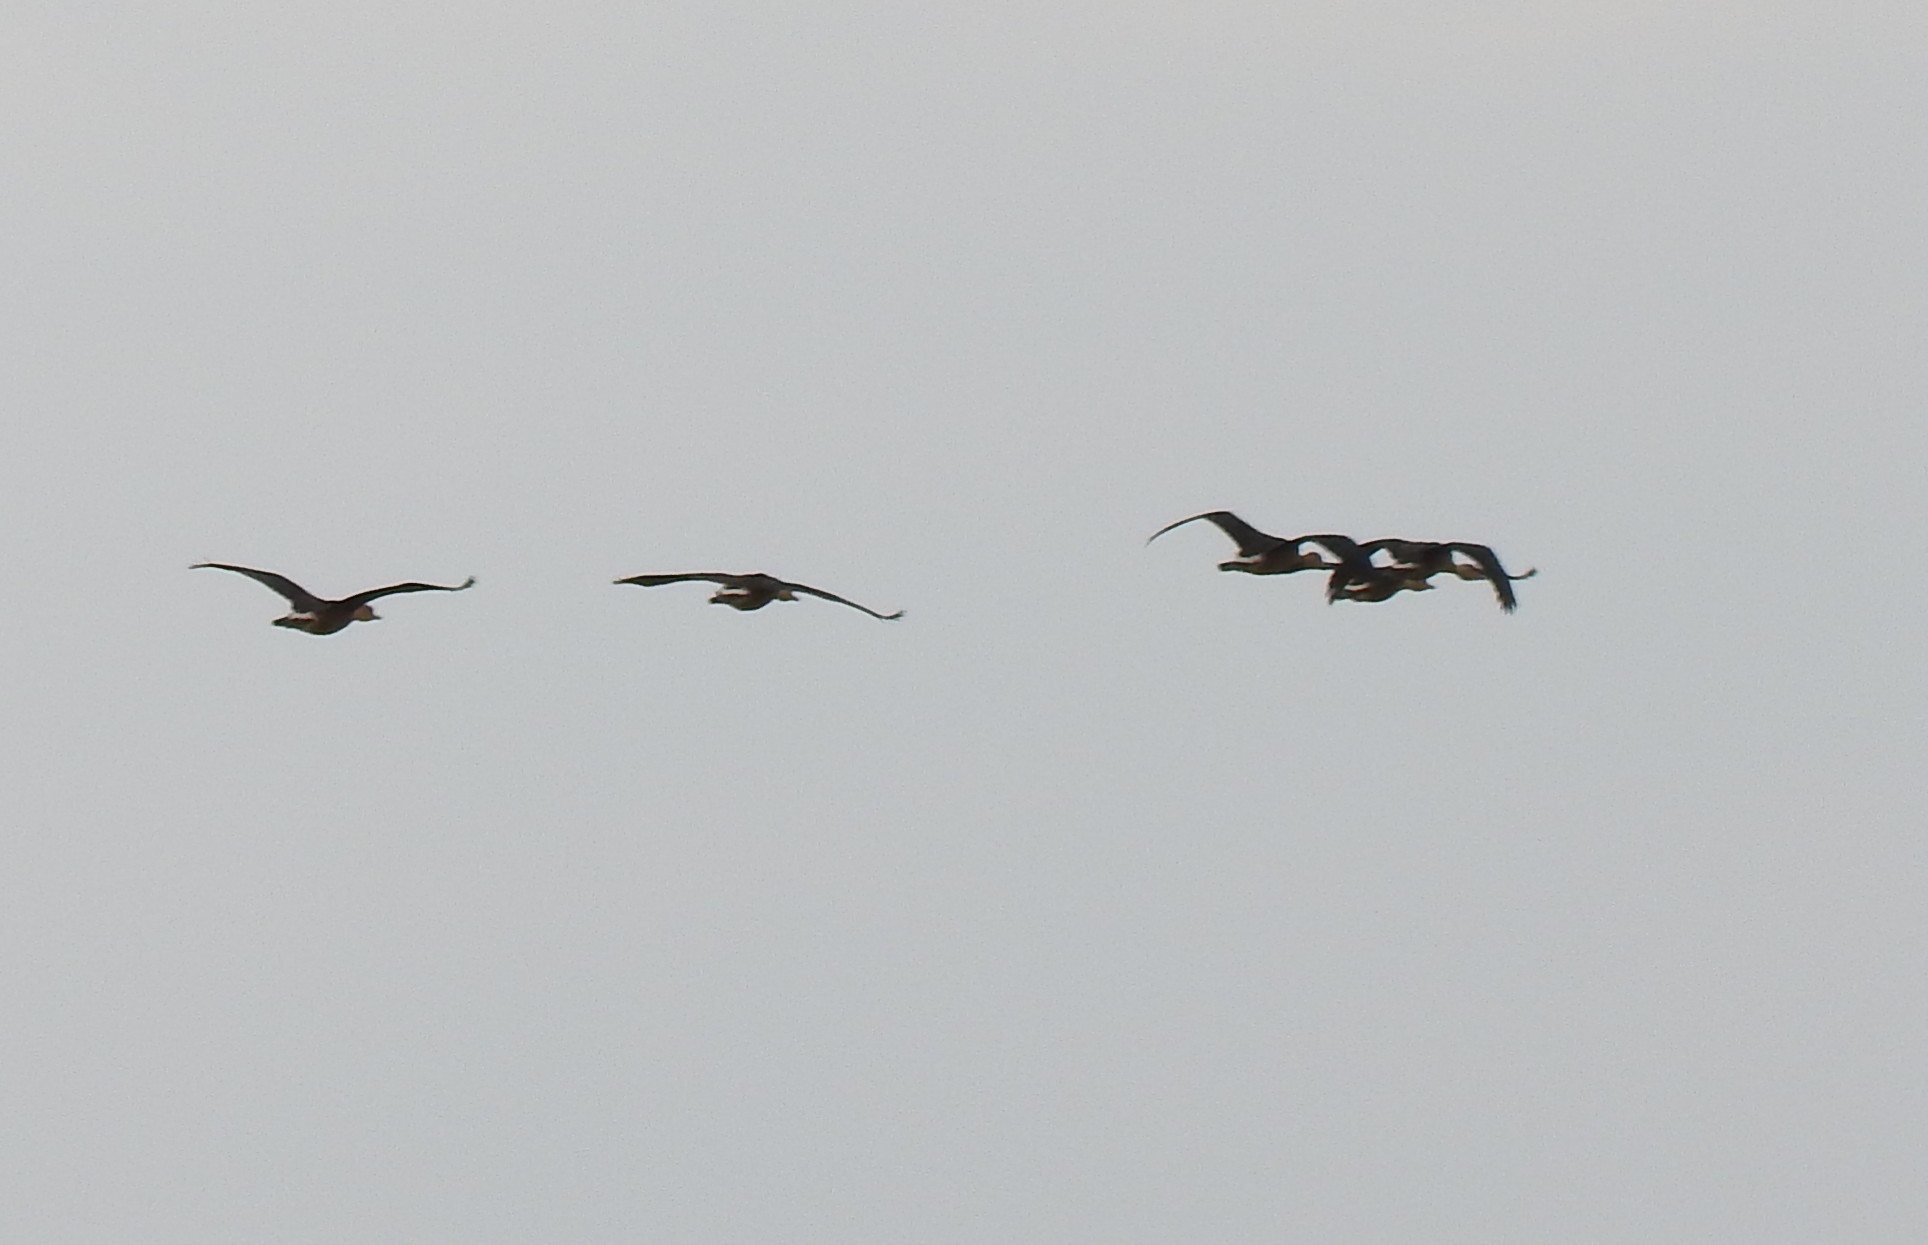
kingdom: Animalia
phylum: Chordata
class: Aves
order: Anseriformes
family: Anatidae
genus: Dendrocygna
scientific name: Dendrocygna bicolor
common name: Fulvous whistling duck
